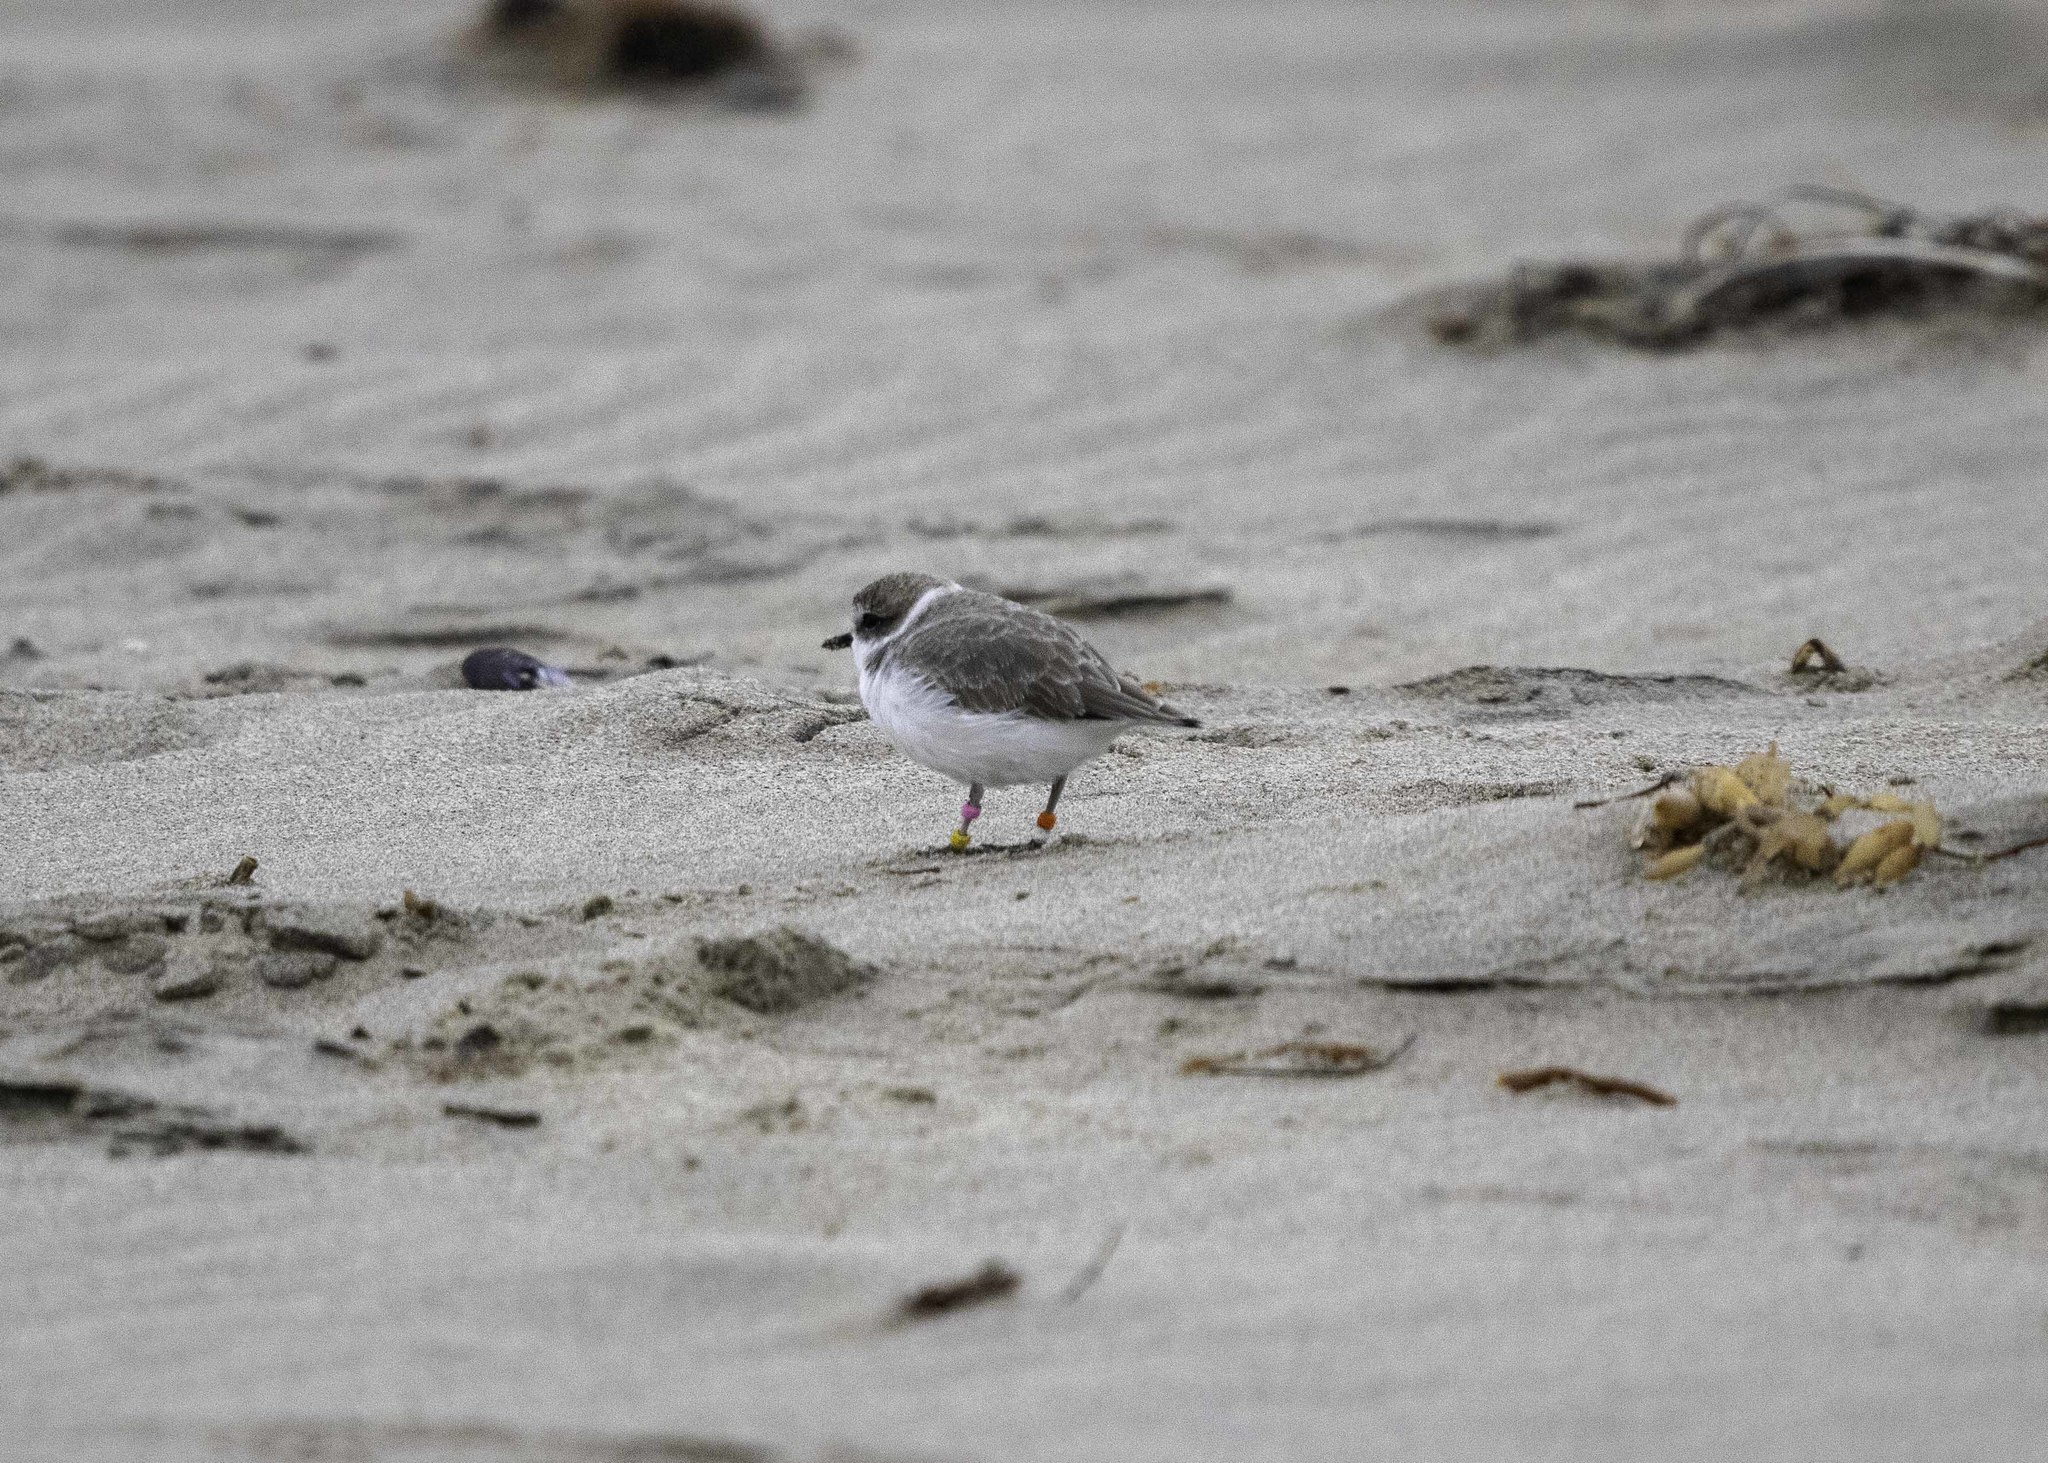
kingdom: Animalia
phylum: Chordata
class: Aves
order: Charadriiformes
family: Charadriidae
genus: Anarhynchus
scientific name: Anarhynchus
